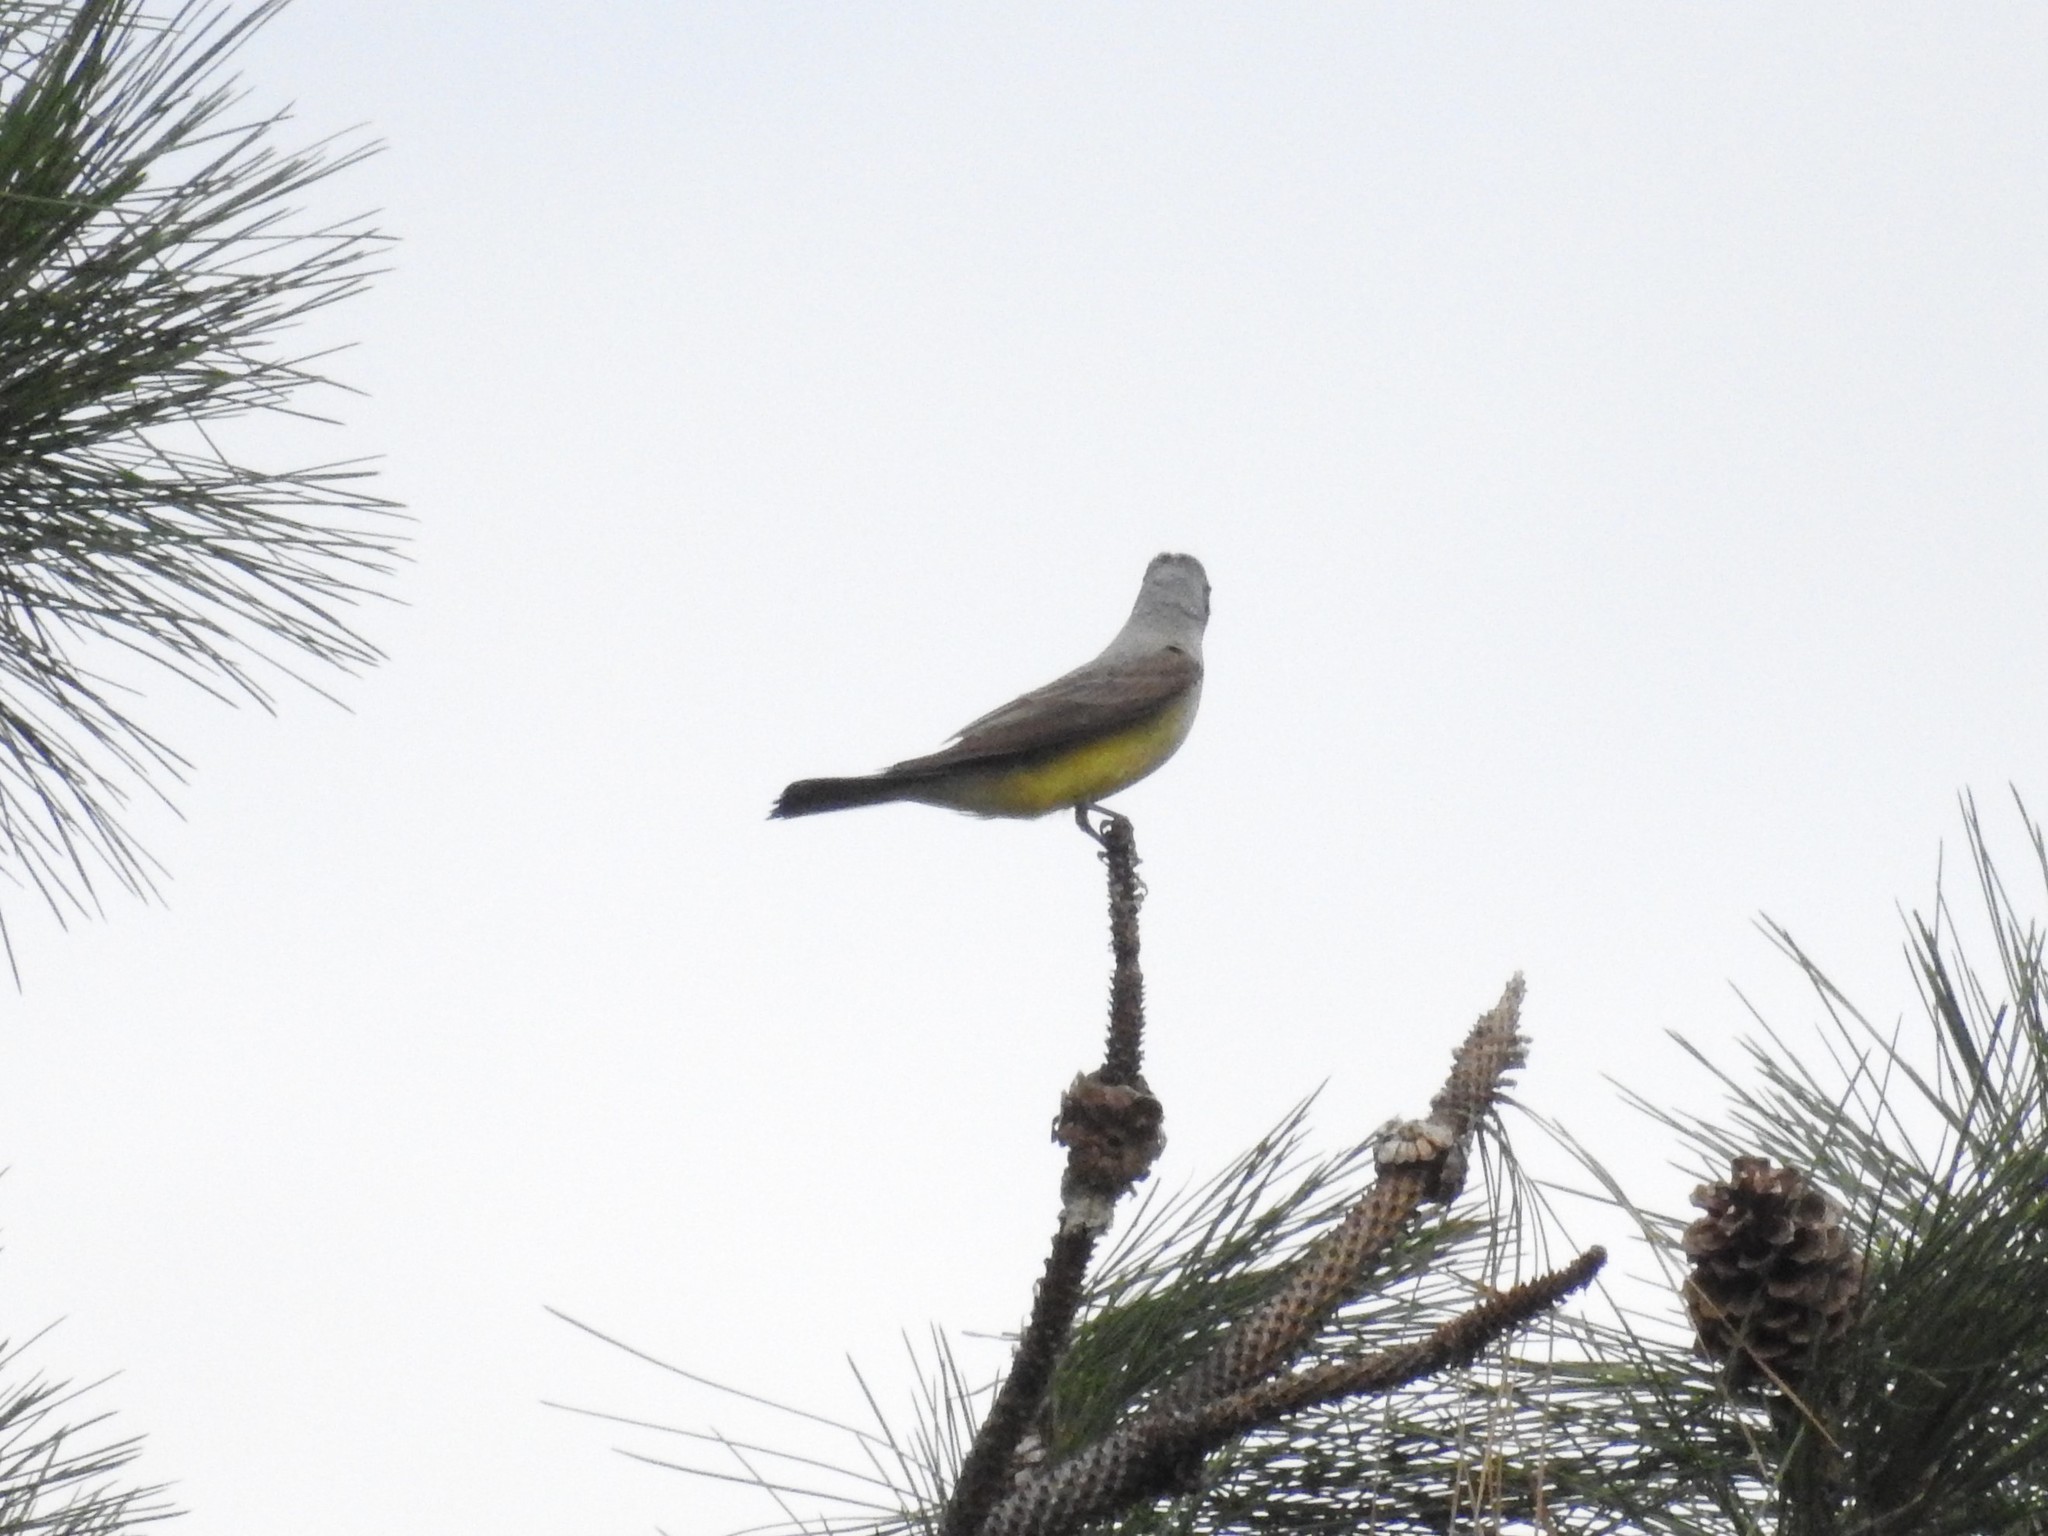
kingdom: Animalia
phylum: Chordata
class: Aves
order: Passeriformes
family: Tyrannidae
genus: Tyrannus
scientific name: Tyrannus verticalis
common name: Western kingbird
